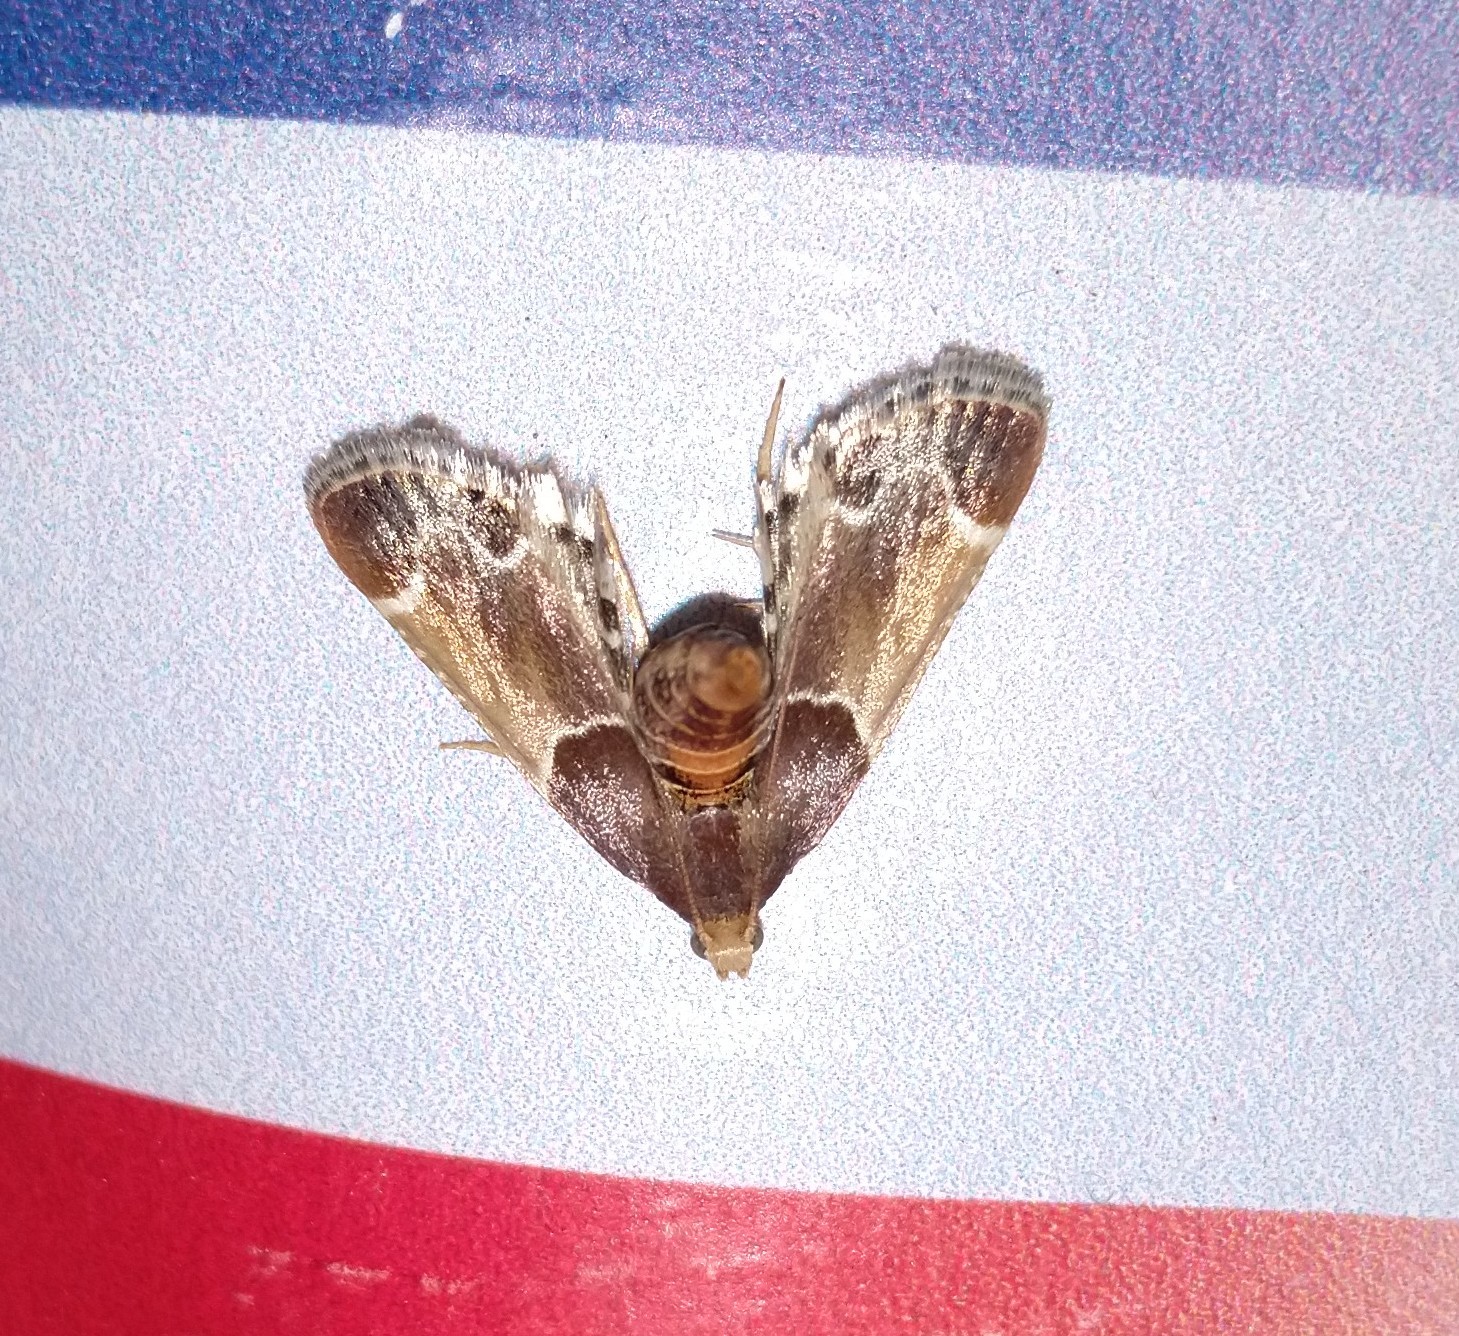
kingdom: Animalia
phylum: Arthropoda
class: Insecta
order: Lepidoptera
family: Pyralidae
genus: Pyralis
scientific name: Pyralis farinalis
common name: Meal moth
